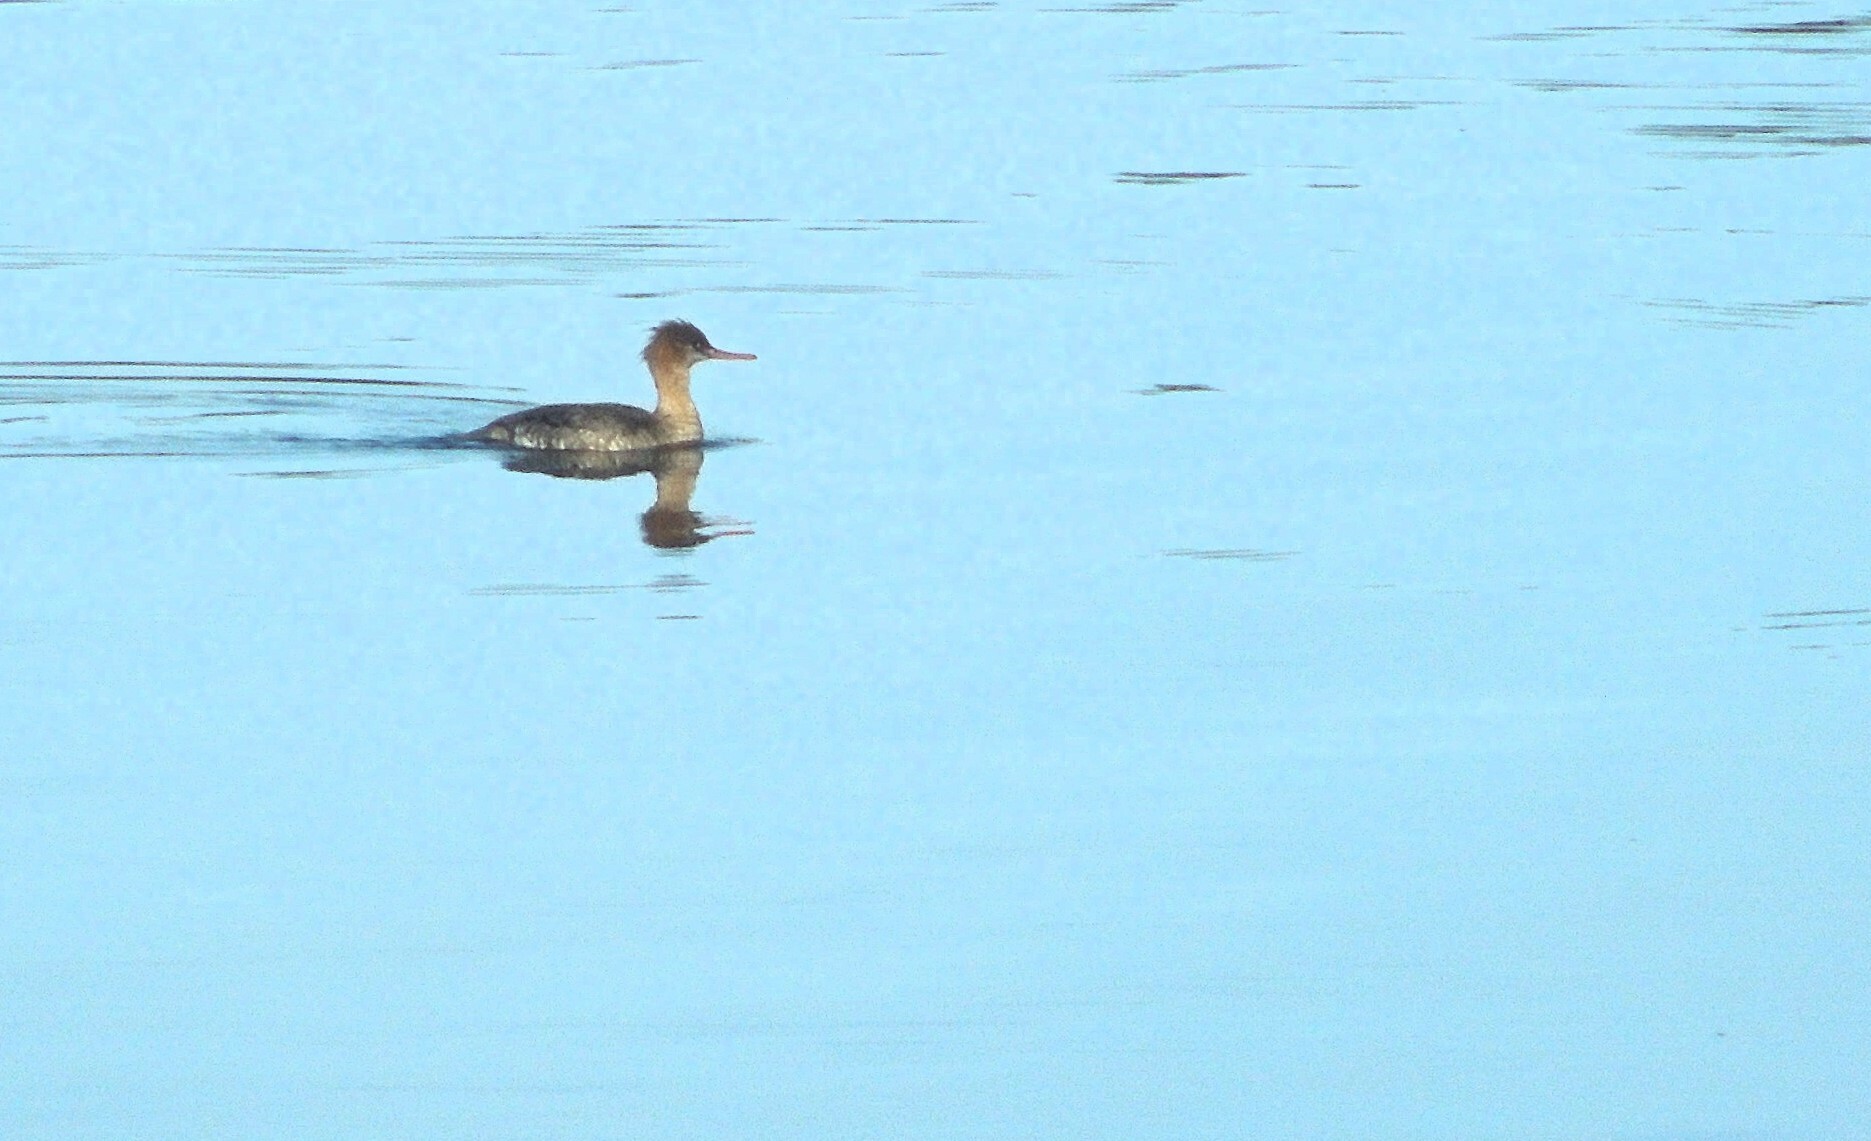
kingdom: Animalia
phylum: Chordata
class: Aves
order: Anseriformes
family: Anatidae
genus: Mergus
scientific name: Mergus serrator
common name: Red-breasted merganser
